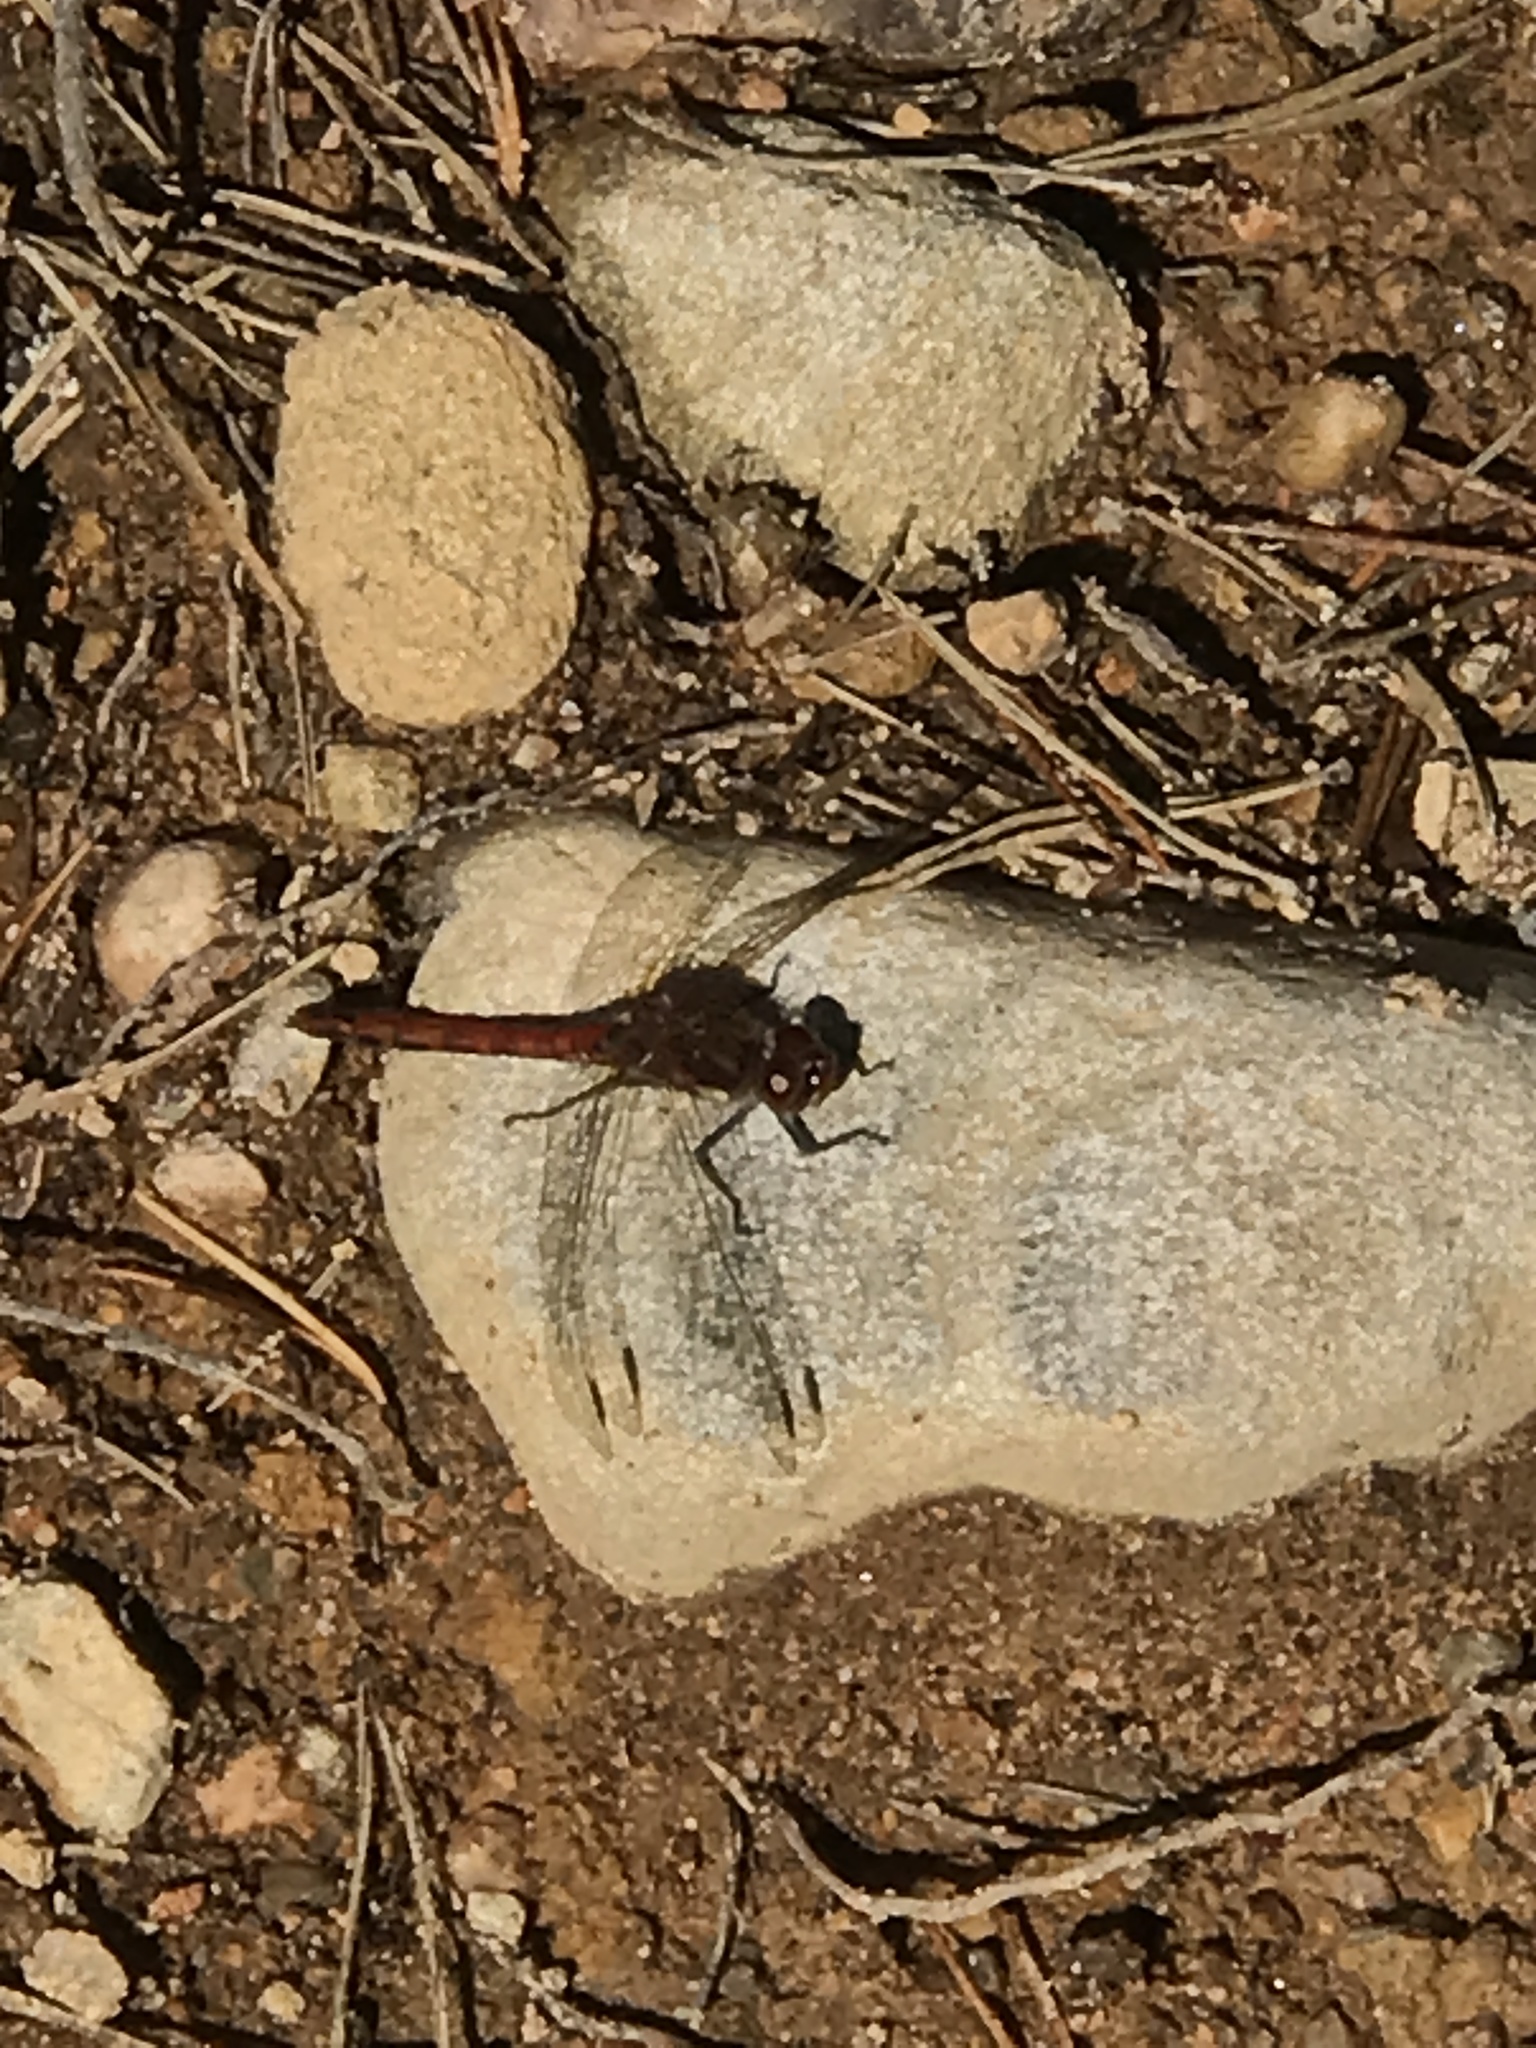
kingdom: Animalia
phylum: Arthropoda
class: Insecta
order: Odonata
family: Libellulidae
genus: Sympetrum
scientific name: Sympetrum striolatum
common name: Common darter
